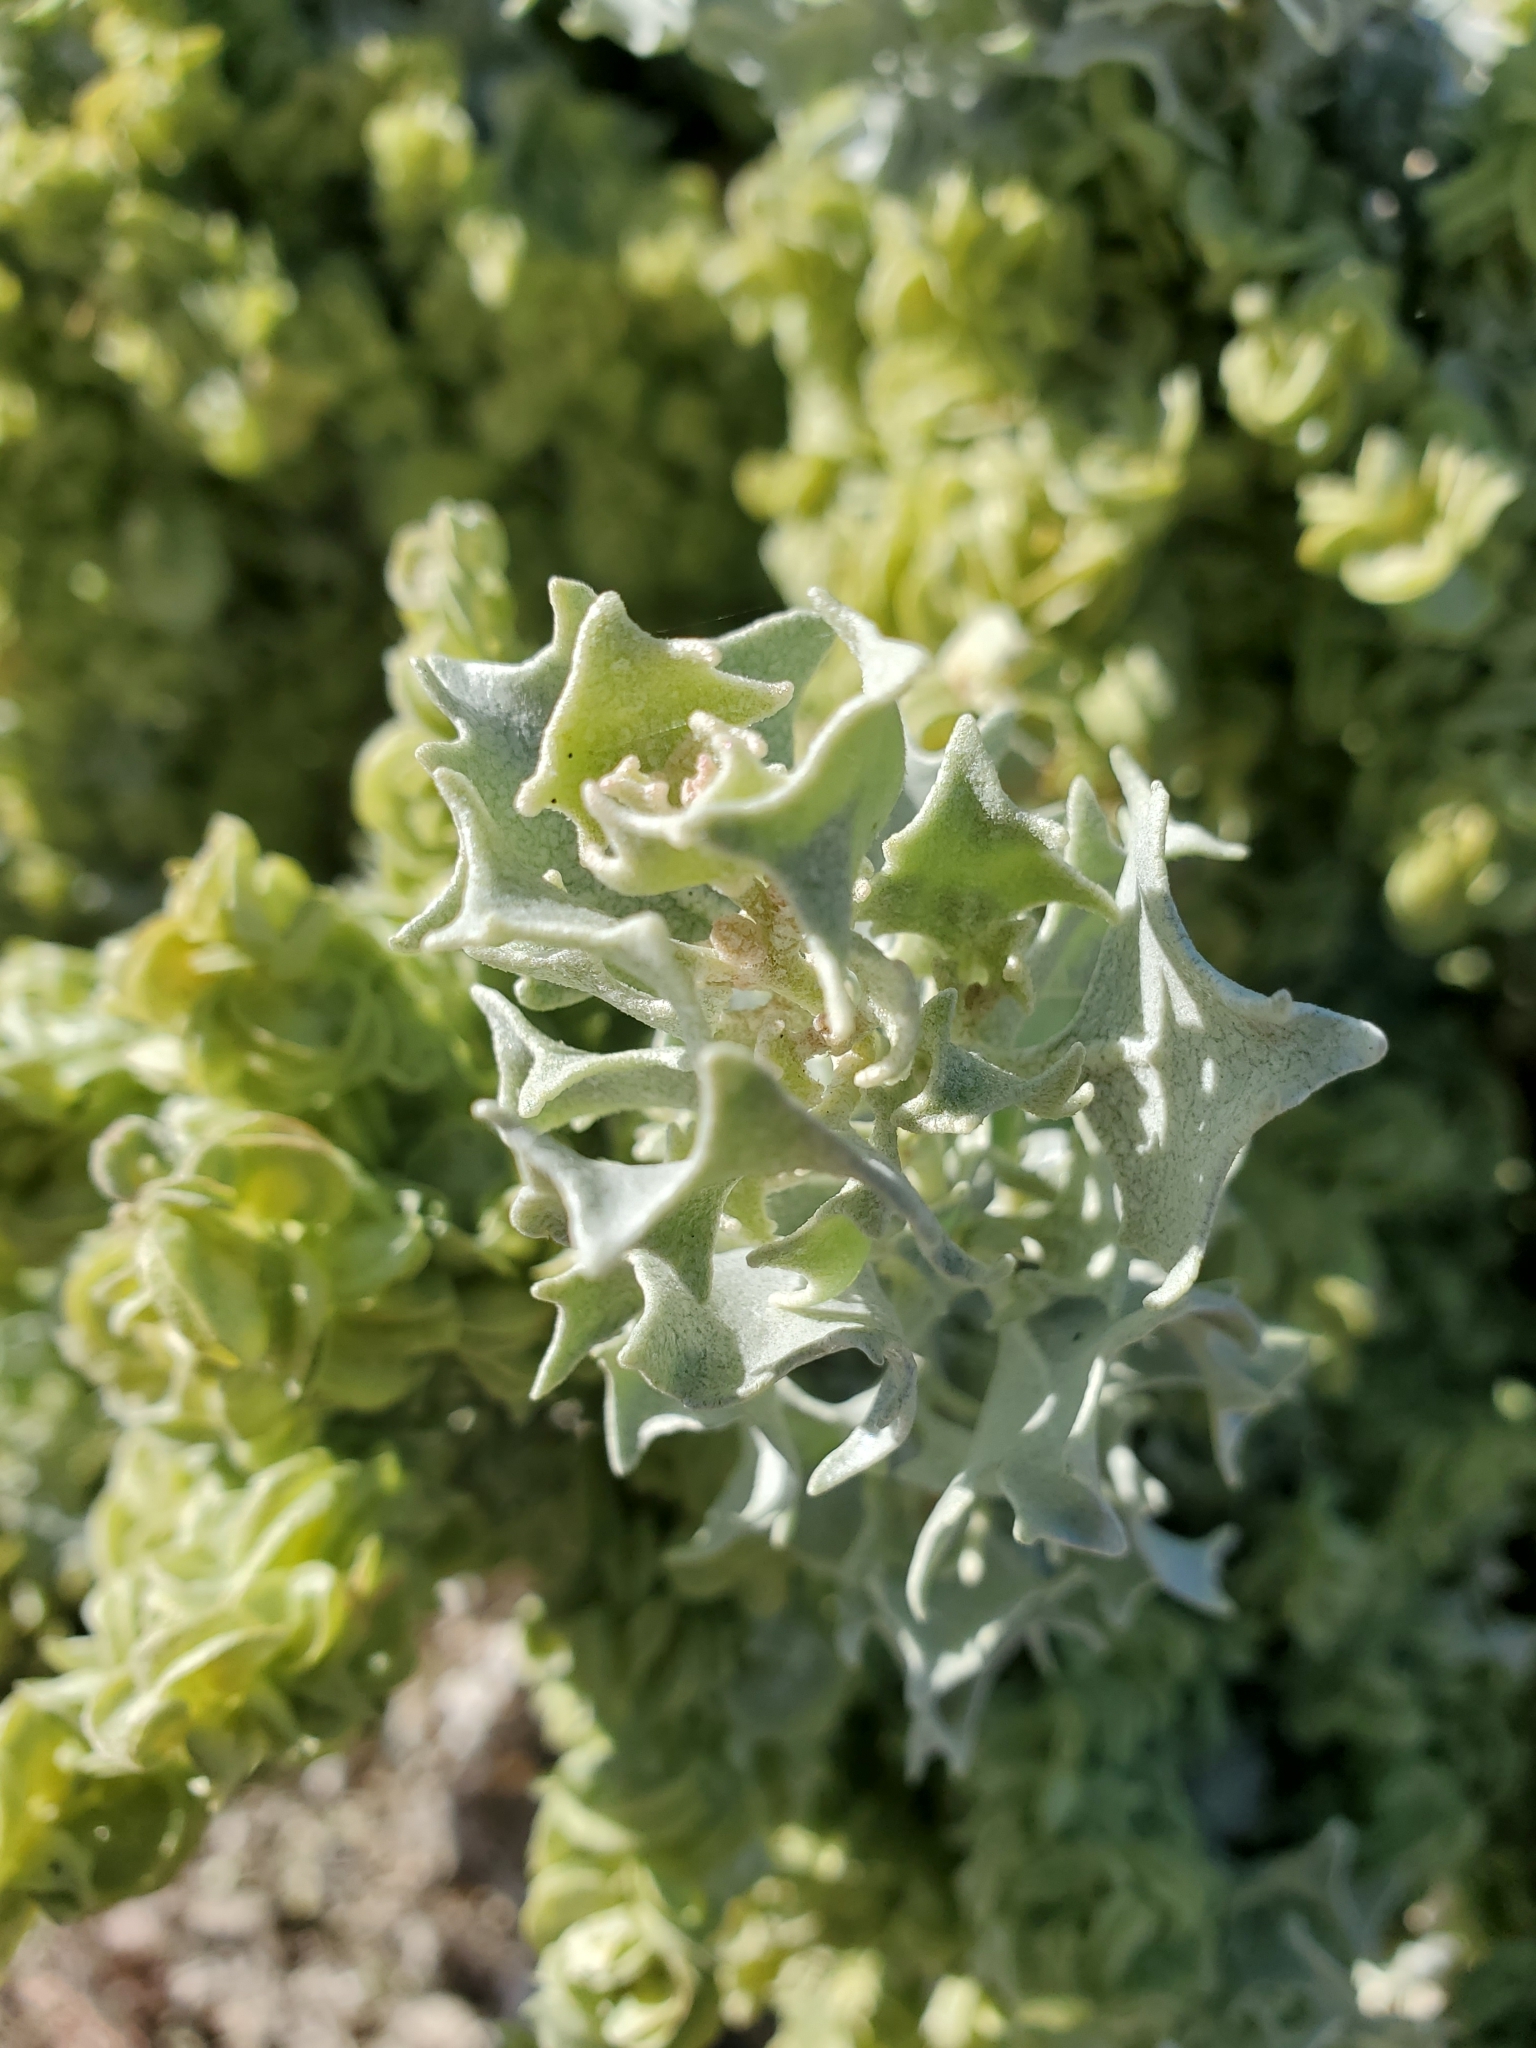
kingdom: Plantae
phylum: Tracheophyta
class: Magnoliopsida
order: Caryophyllales
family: Amaranthaceae
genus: Atriplex
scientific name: Atriplex hymenelytra
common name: Desert-holly
